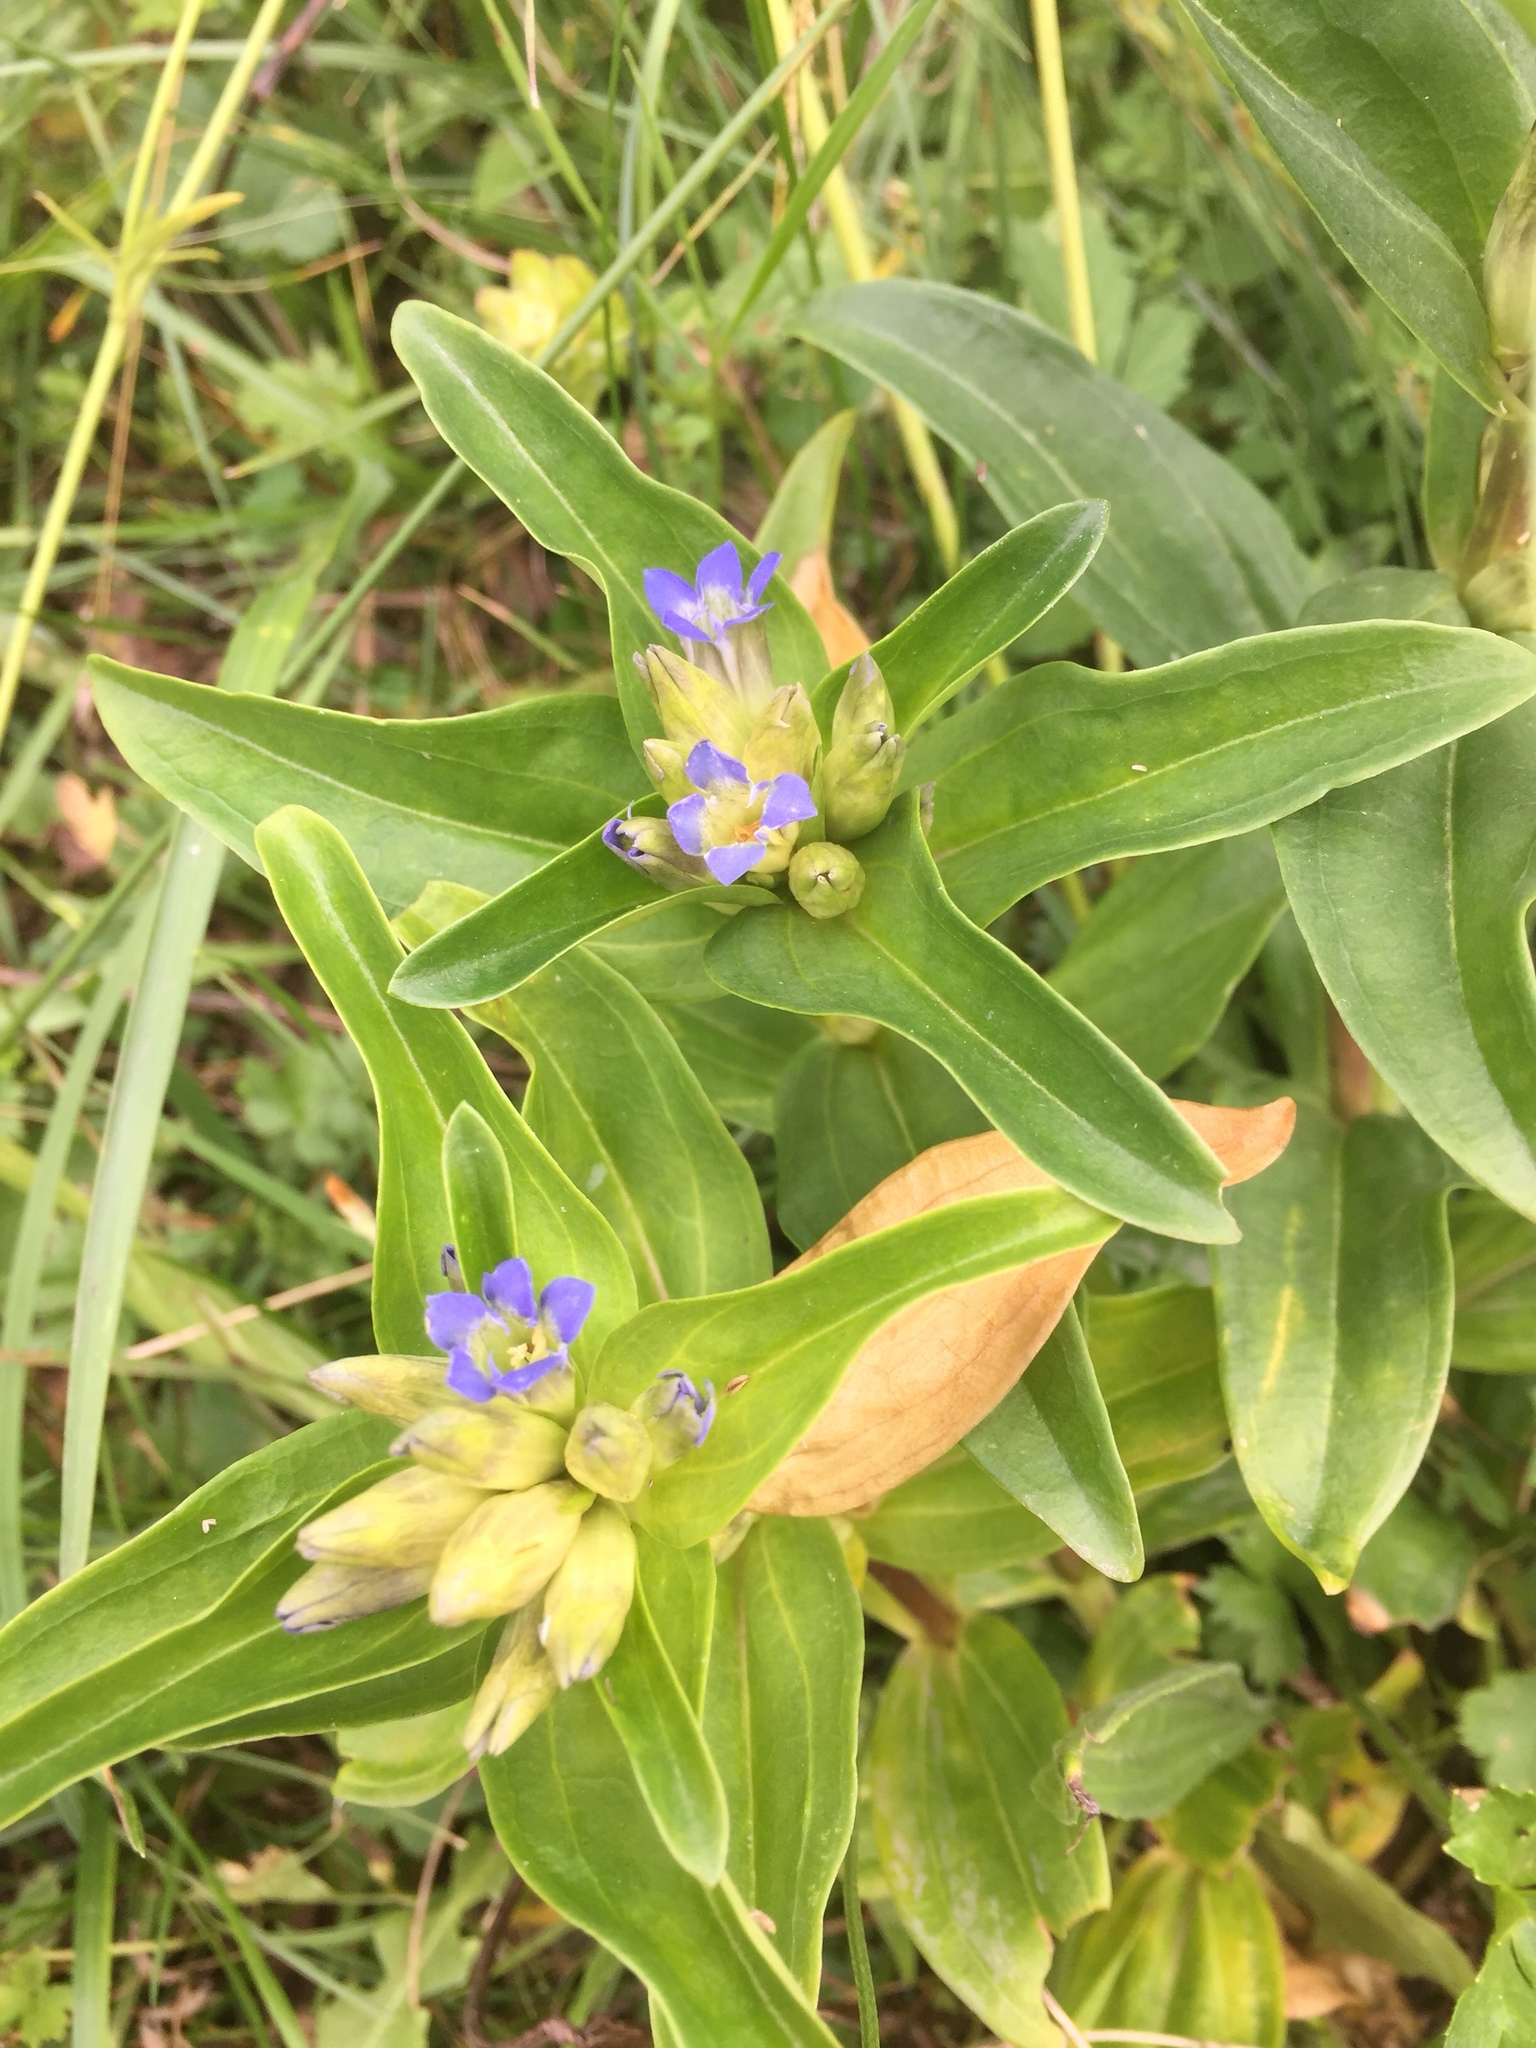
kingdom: Plantae
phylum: Tracheophyta
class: Magnoliopsida
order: Gentianales
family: Gentianaceae
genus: Gentiana
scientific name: Gentiana cruciata
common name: Cross gentian
